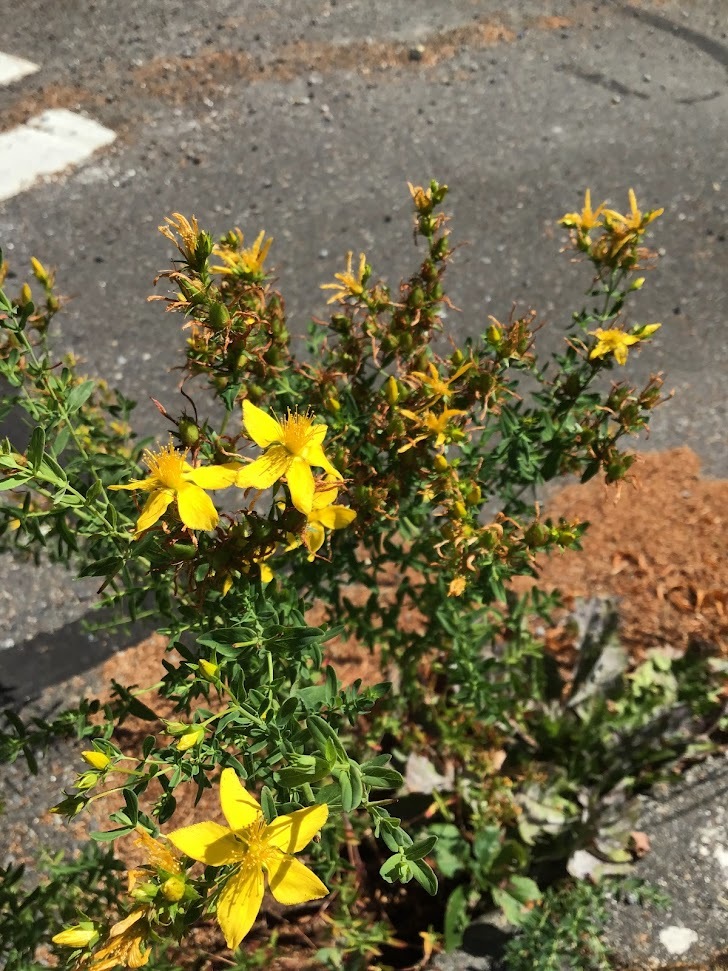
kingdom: Plantae
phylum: Tracheophyta
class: Magnoliopsida
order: Malpighiales
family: Hypericaceae
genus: Hypericum
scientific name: Hypericum perforatum
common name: Common st. johnswort
